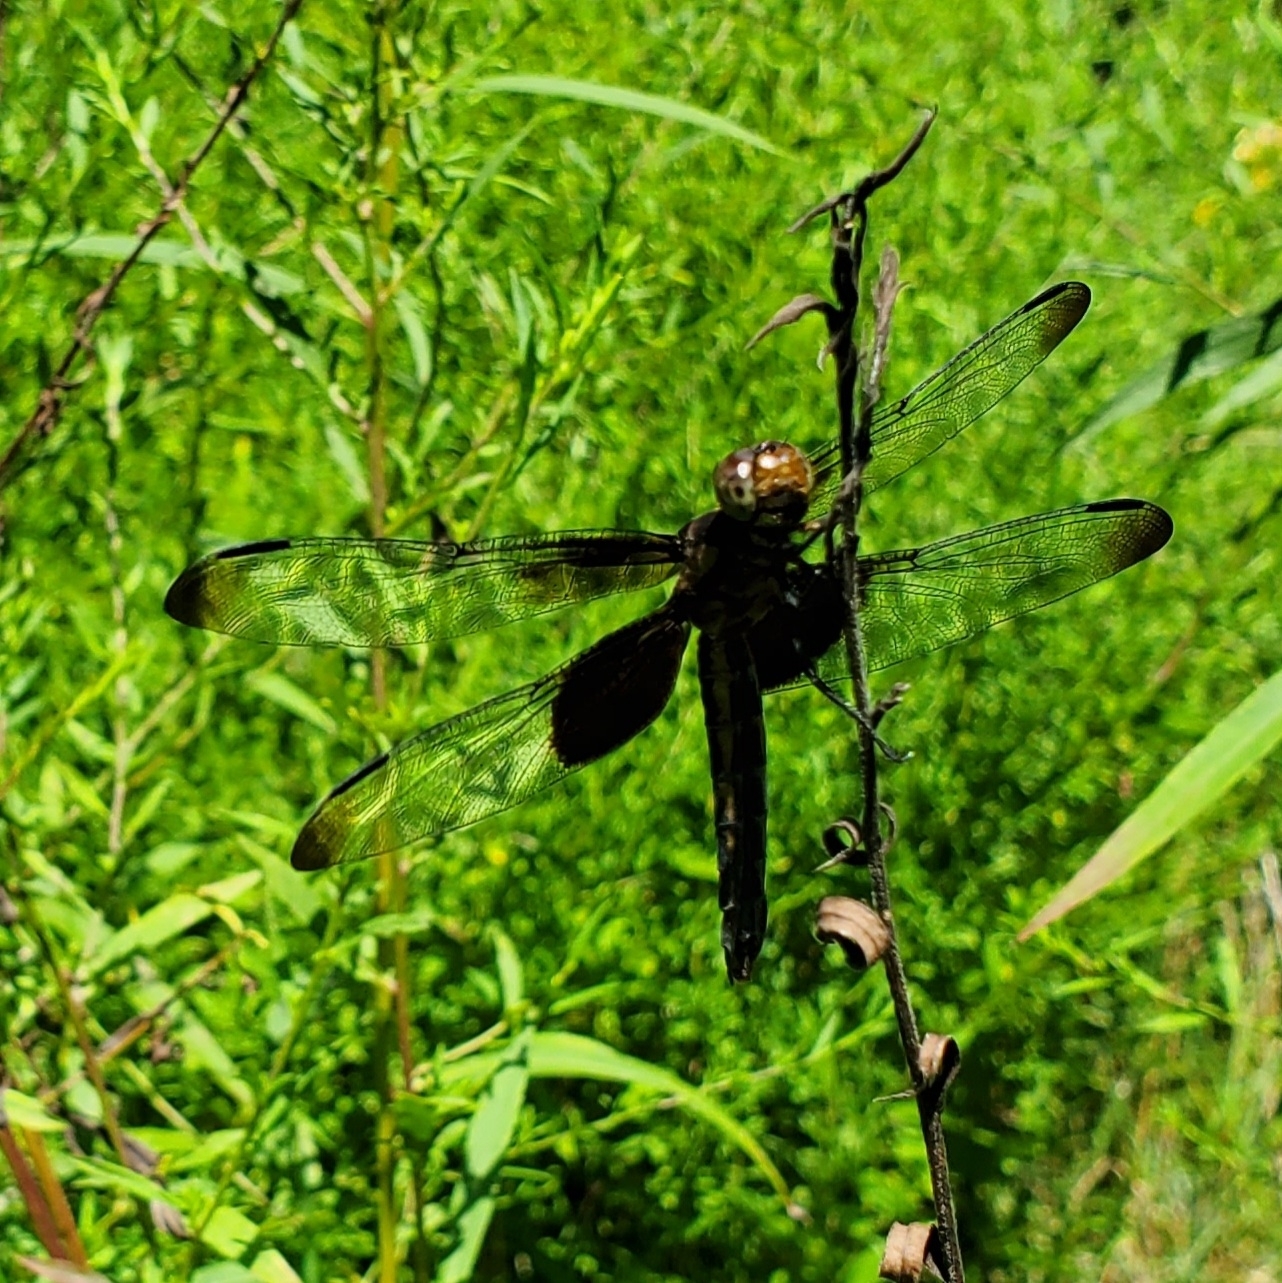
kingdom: Animalia
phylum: Arthropoda
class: Insecta
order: Odonata
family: Libellulidae
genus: Libellula
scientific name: Libellula luctuosa
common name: Widow skimmer
